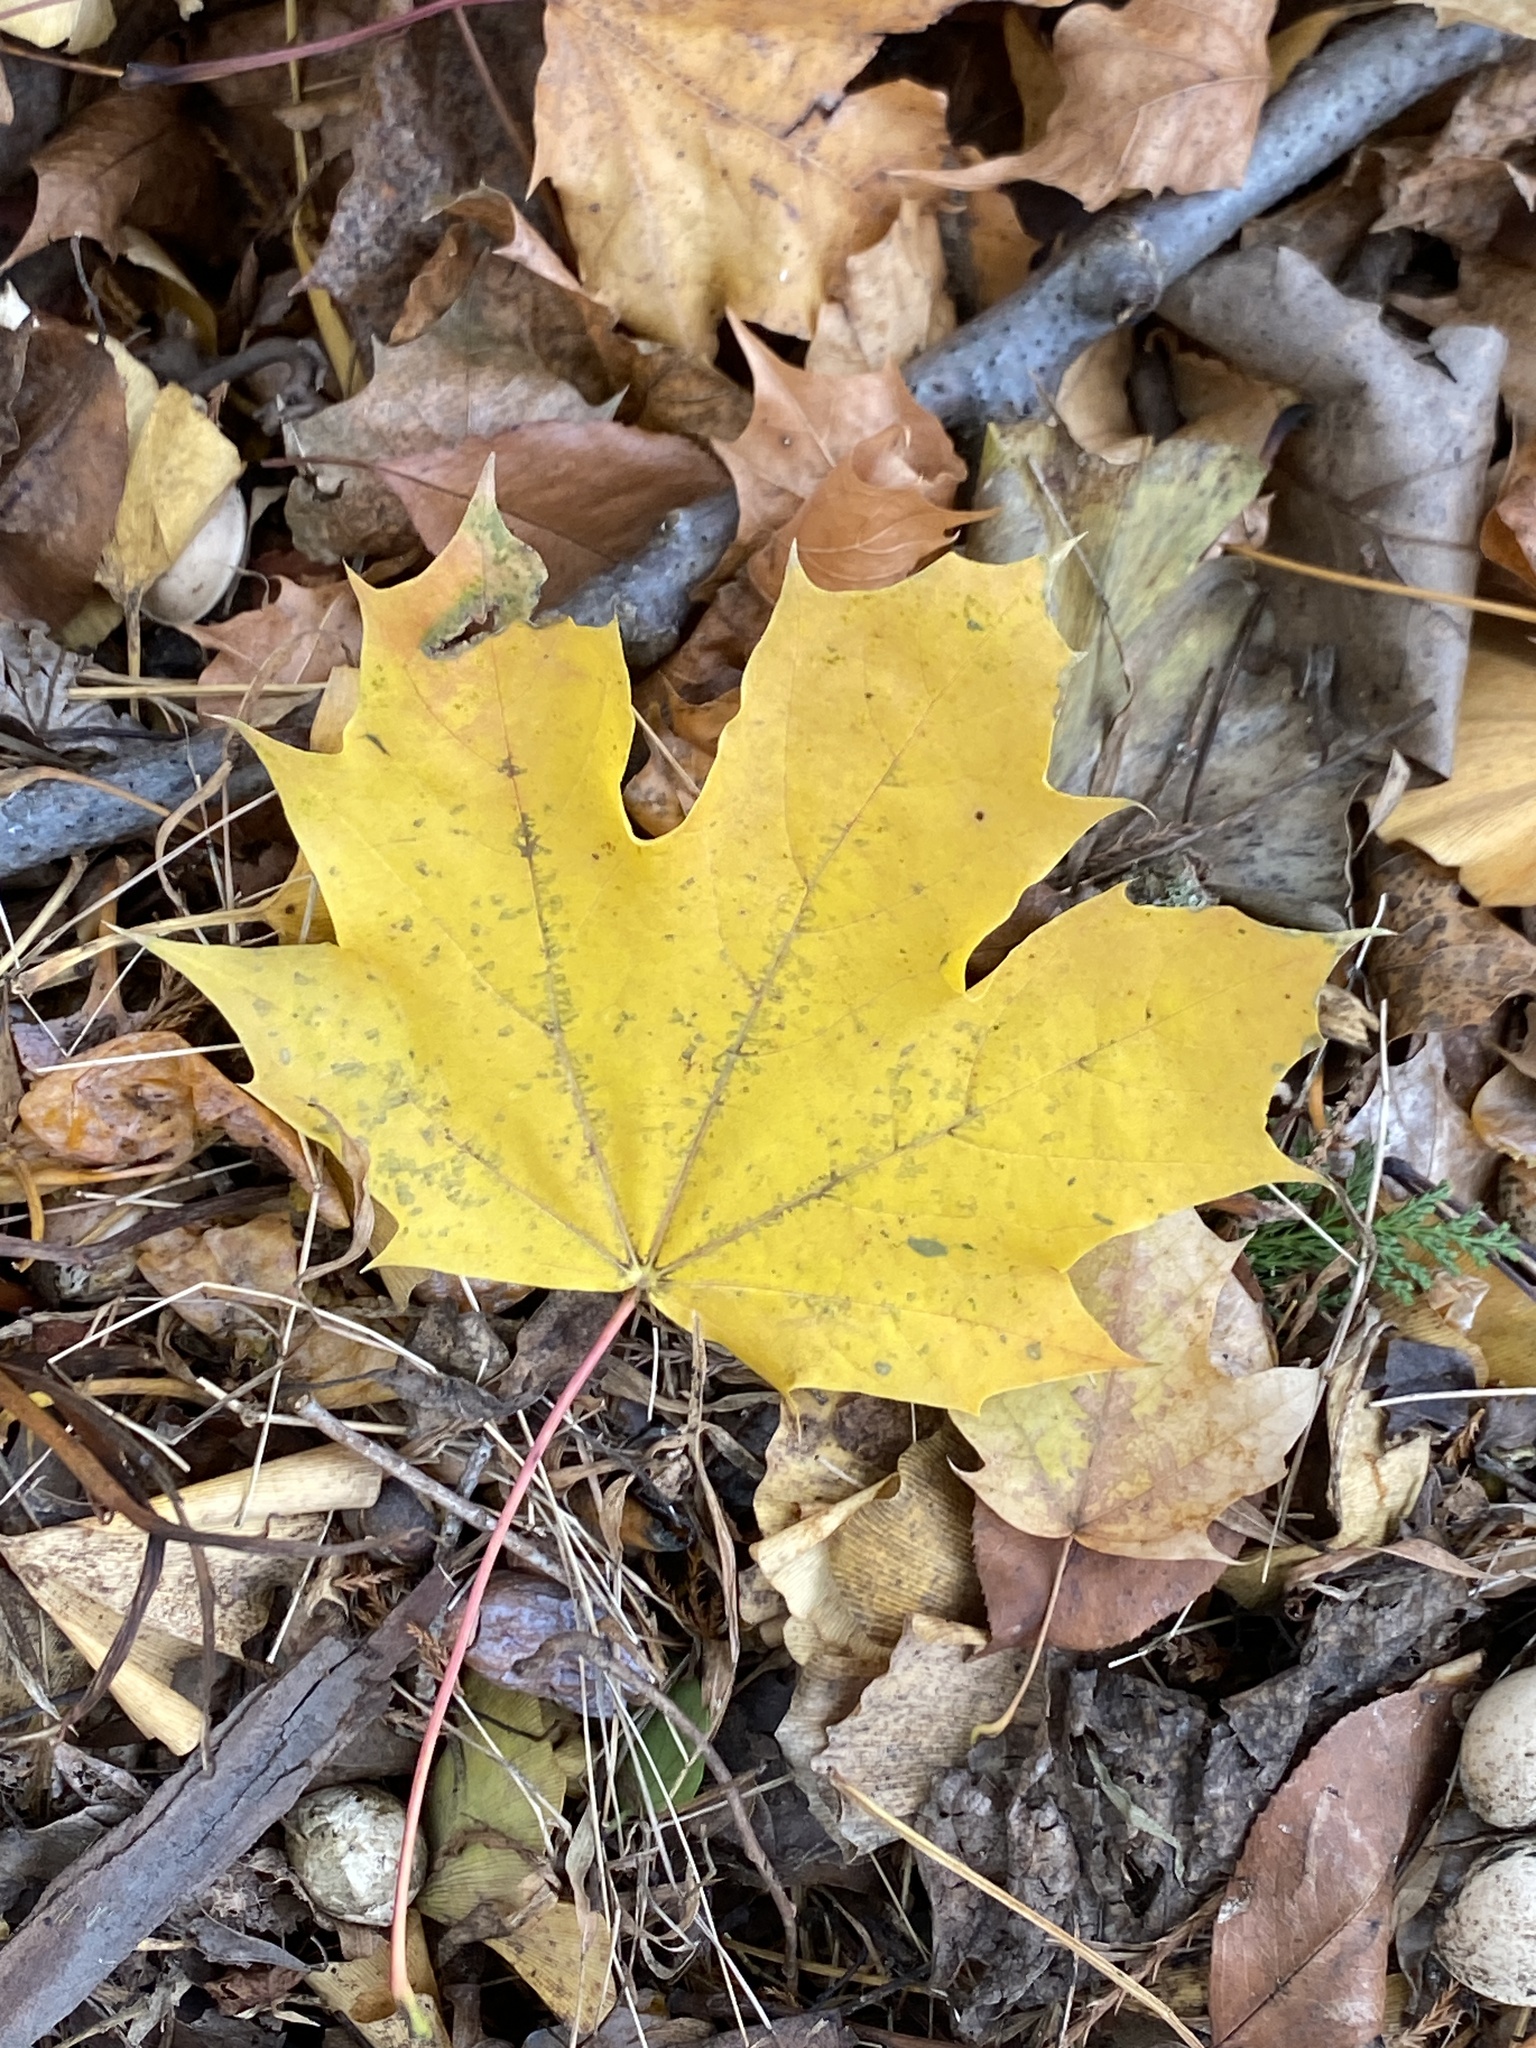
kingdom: Plantae
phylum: Tracheophyta
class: Magnoliopsida
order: Sapindales
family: Sapindaceae
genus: Acer
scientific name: Acer platanoides
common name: Norway maple
